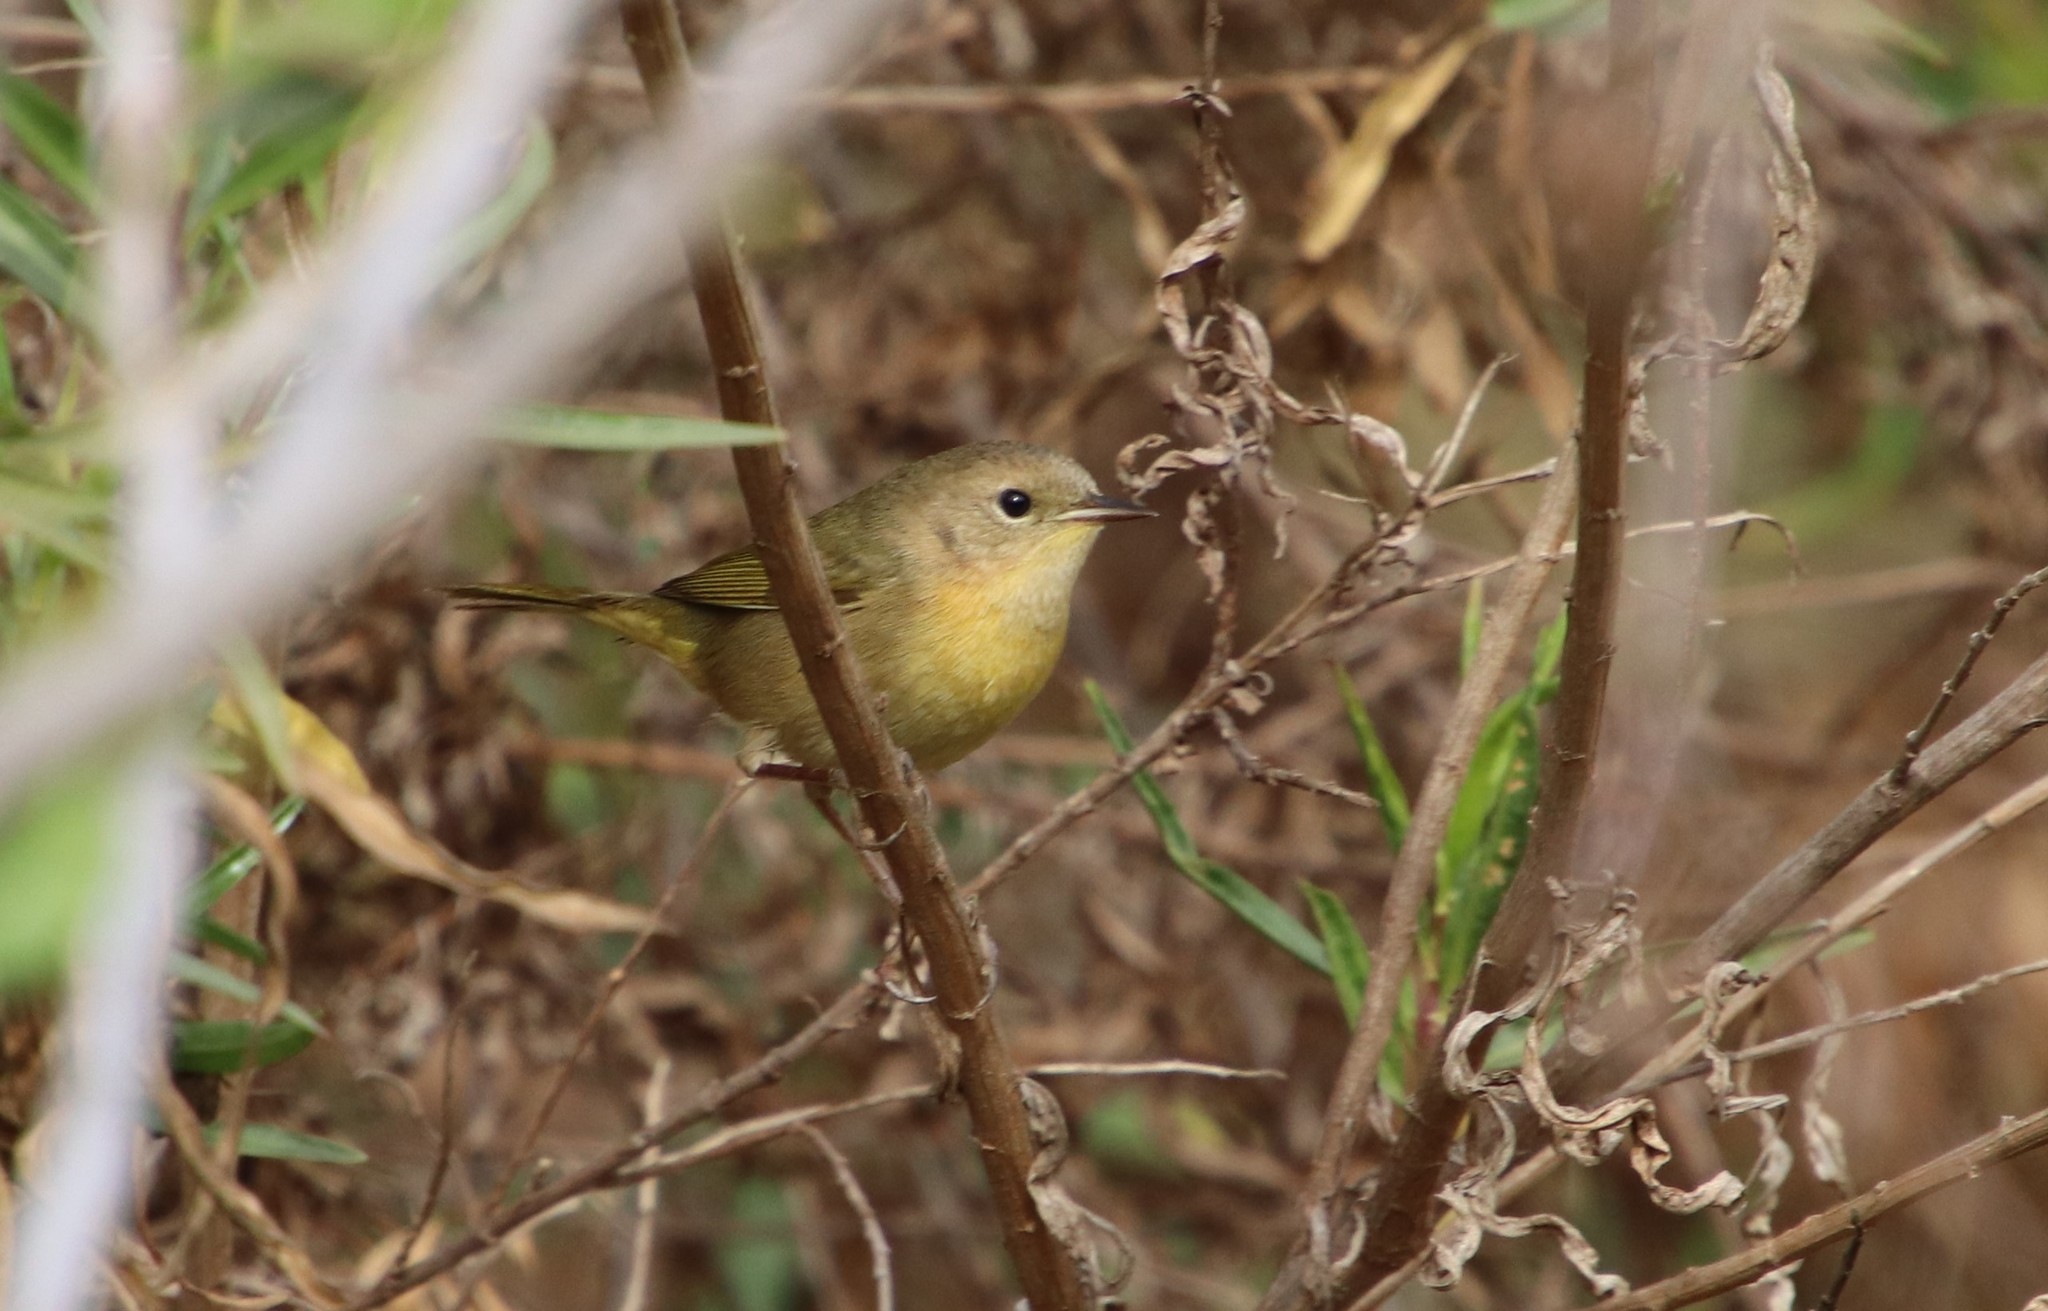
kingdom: Animalia
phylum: Chordata
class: Aves
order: Passeriformes
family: Parulidae
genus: Geothlypis
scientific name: Geothlypis trichas
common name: Common yellowthroat
